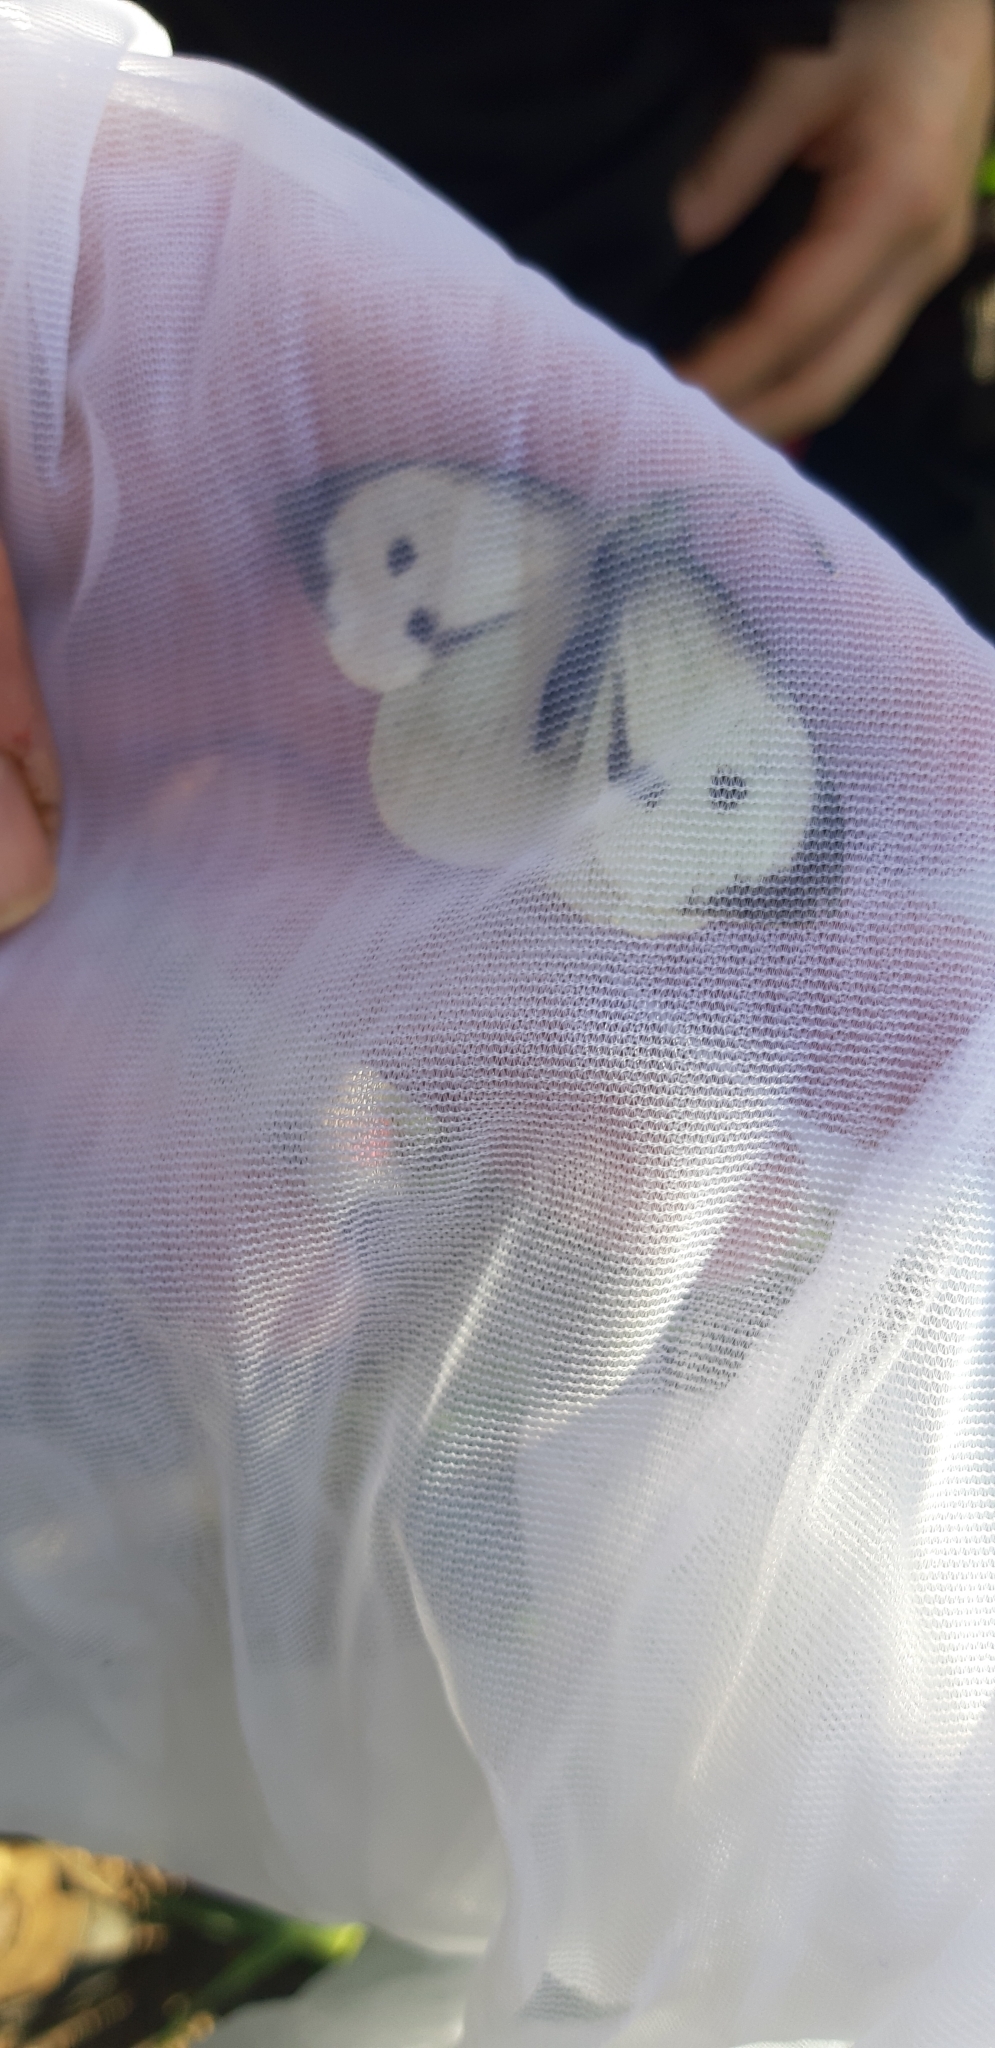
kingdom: Animalia
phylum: Arthropoda
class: Insecta
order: Lepidoptera
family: Pieridae
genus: Pieris
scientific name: Pieris brassicae
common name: Large white
